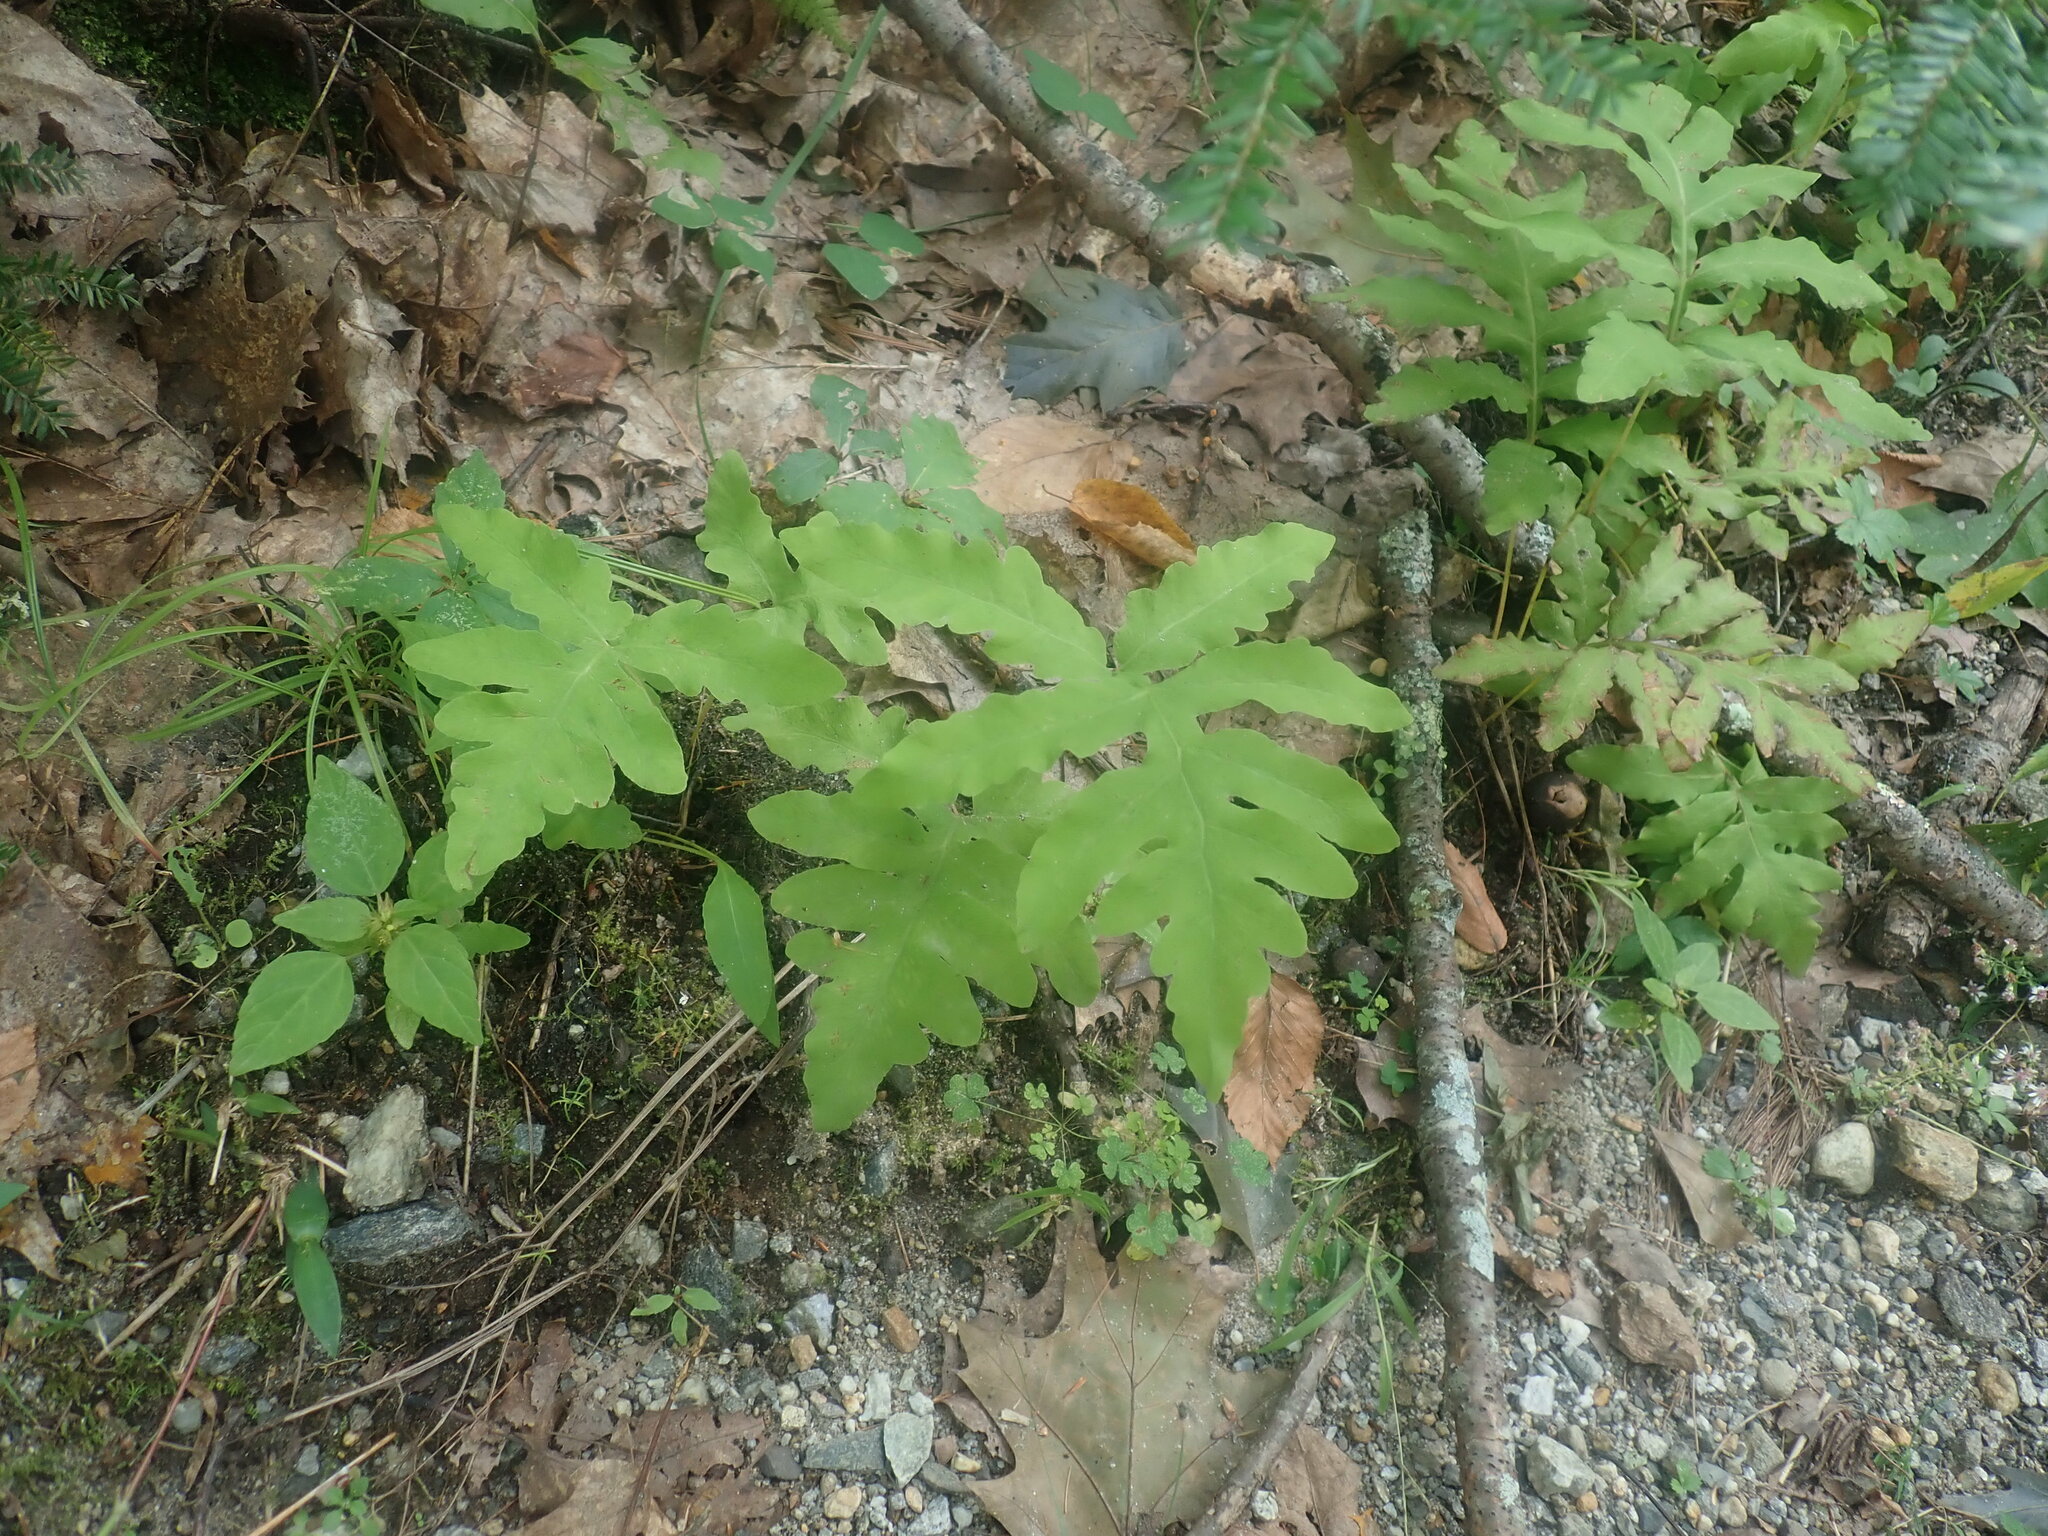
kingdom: Plantae
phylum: Tracheophyta
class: Polypodiopsida
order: Polypodiales
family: Onocleaceae
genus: Onoclea
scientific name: Onoclea sensibilis
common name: Sensitive fern
